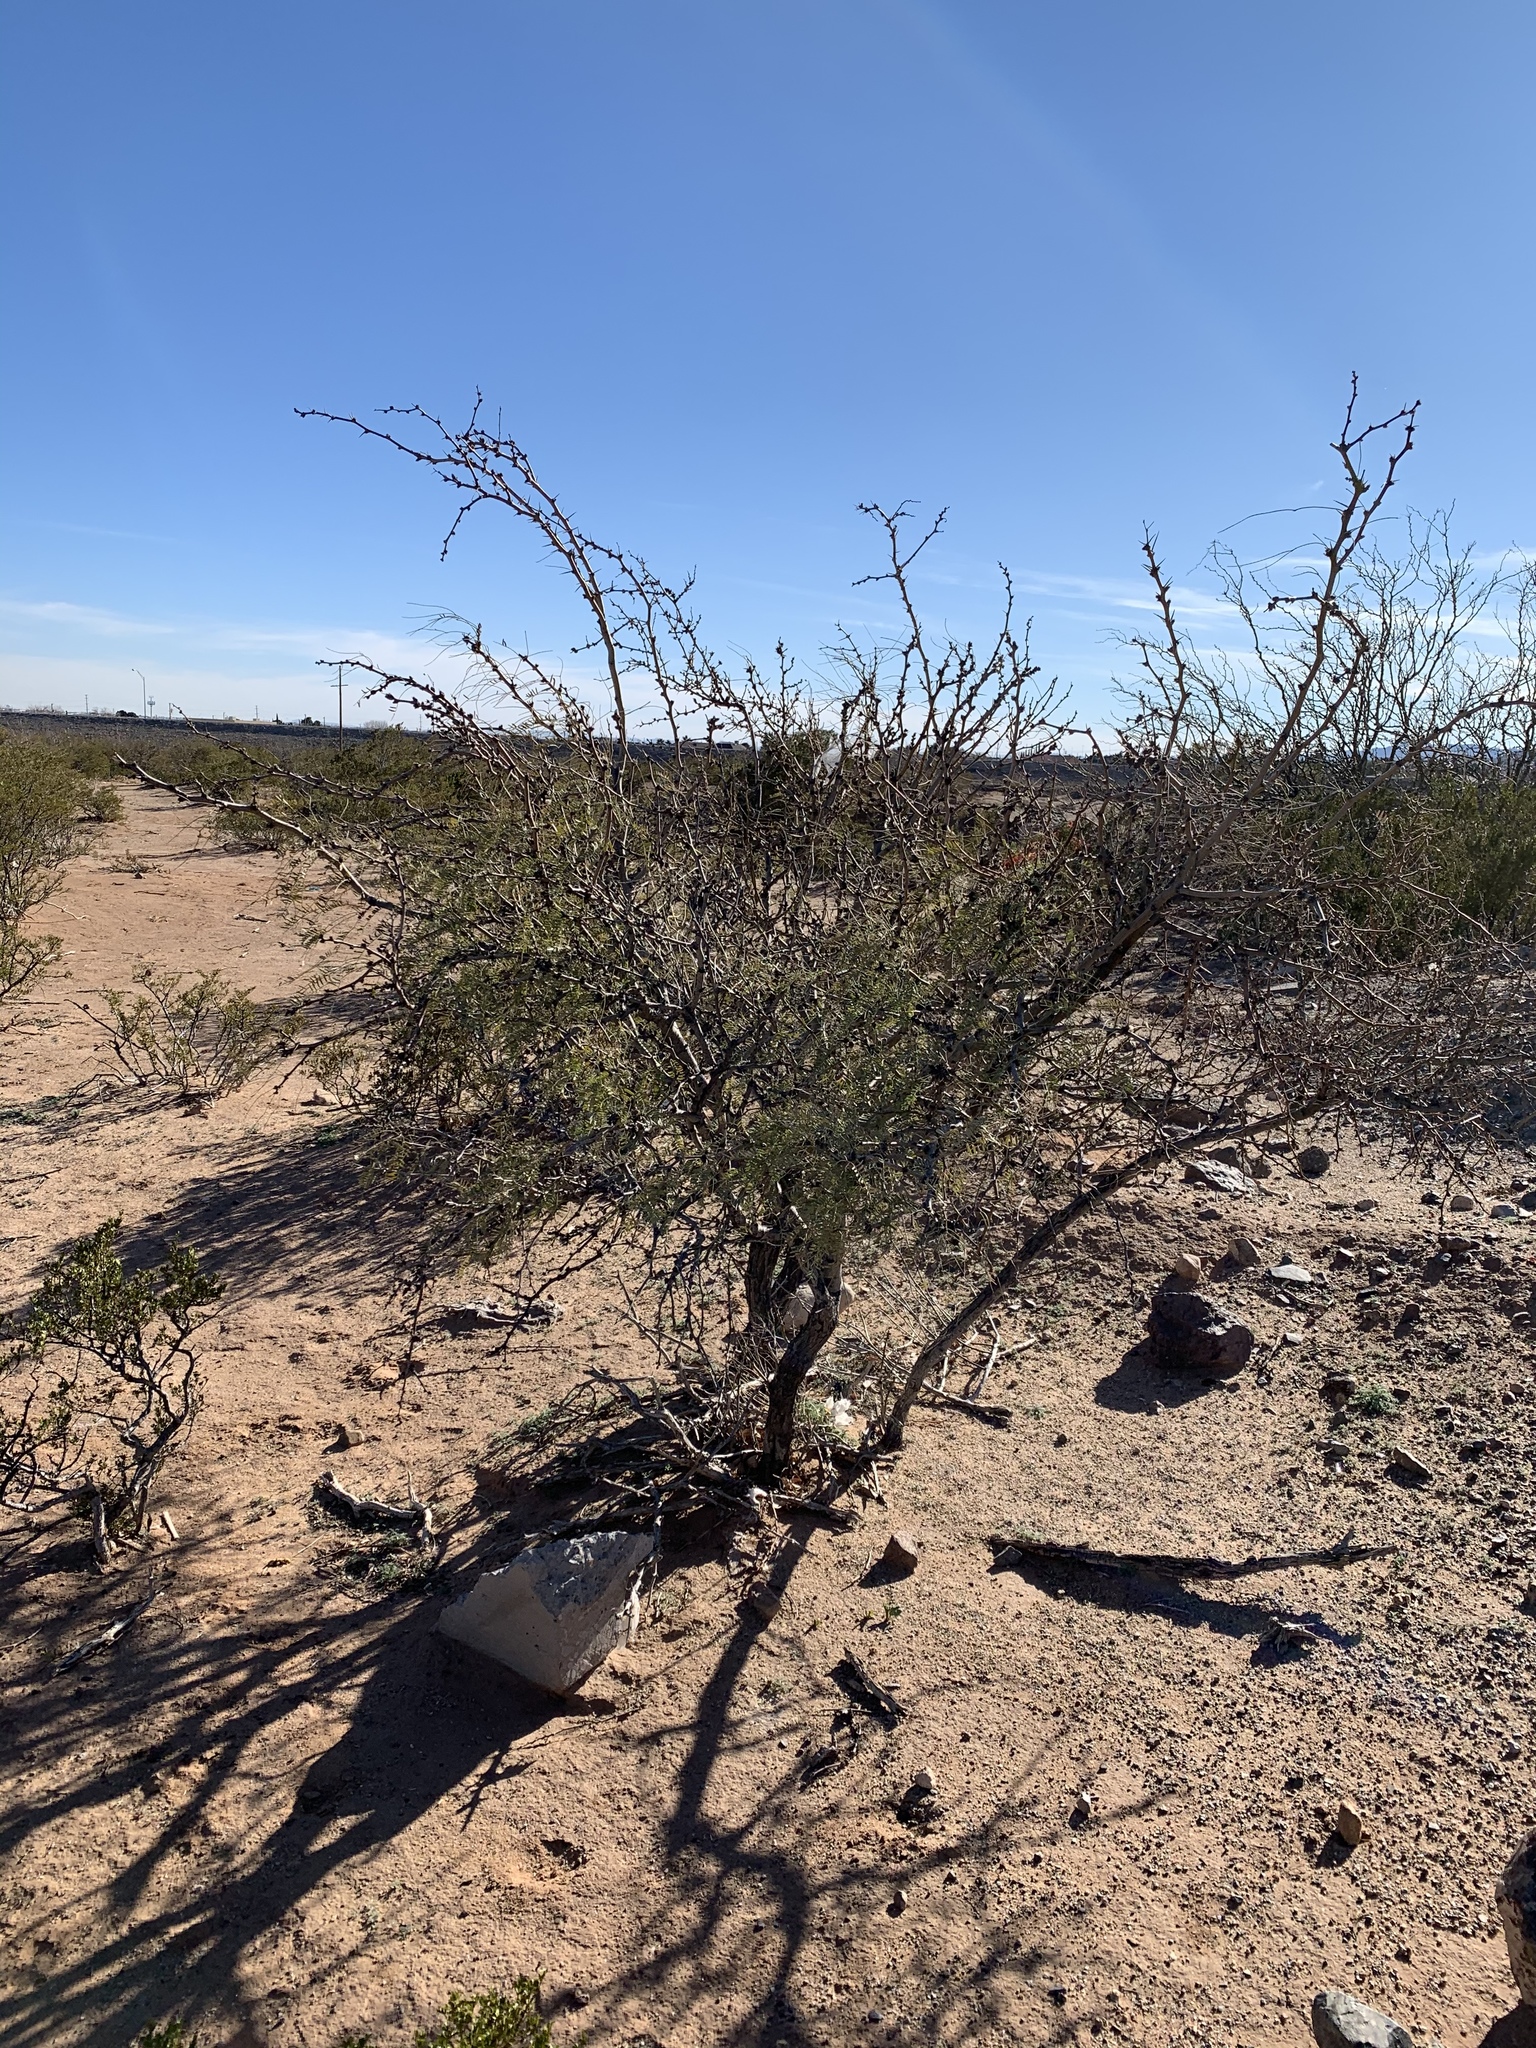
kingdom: Plantae
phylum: Tracheophyta
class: Magnoliopsida
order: Fabales
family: Fabaceae
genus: Prosopis
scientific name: Prosopis glandulosa
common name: Honey mesquite
